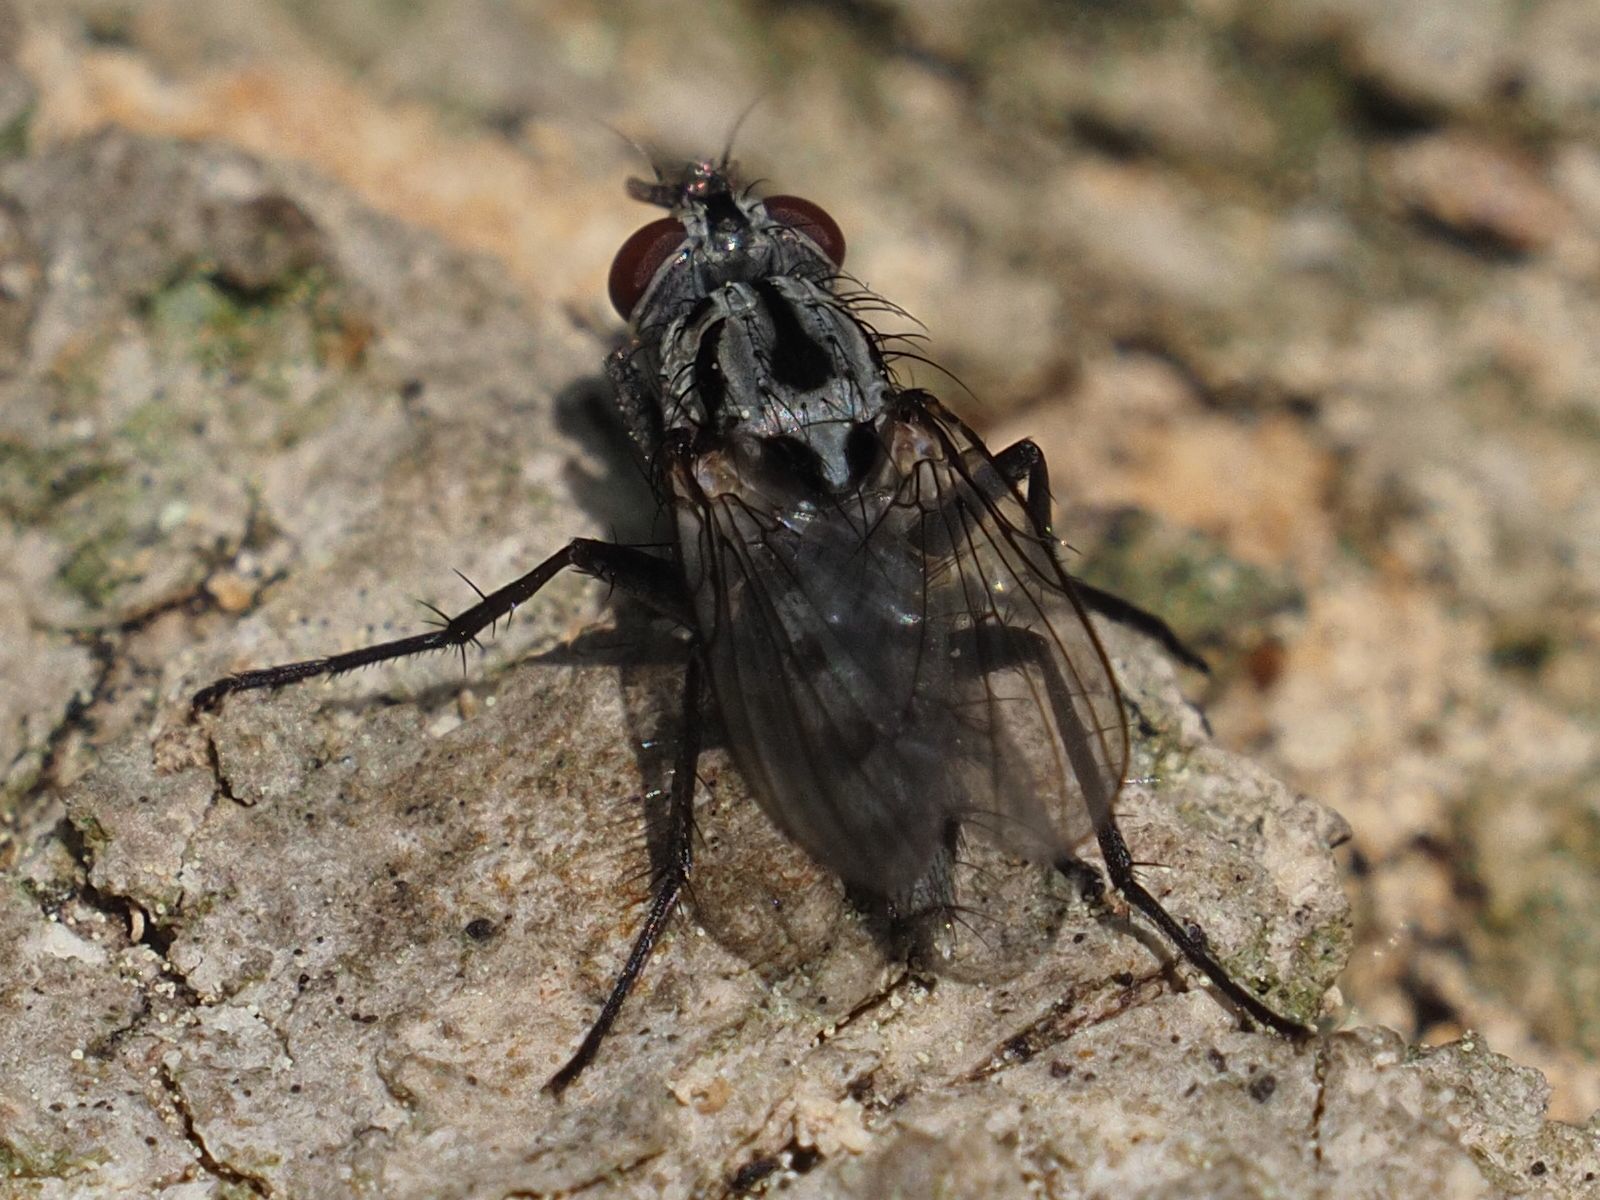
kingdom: Animalia
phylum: Arthropoda
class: Insecta
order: Diptera
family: Anthomyiidae
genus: Eustalomyia
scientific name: Eustalomyia hilaris
